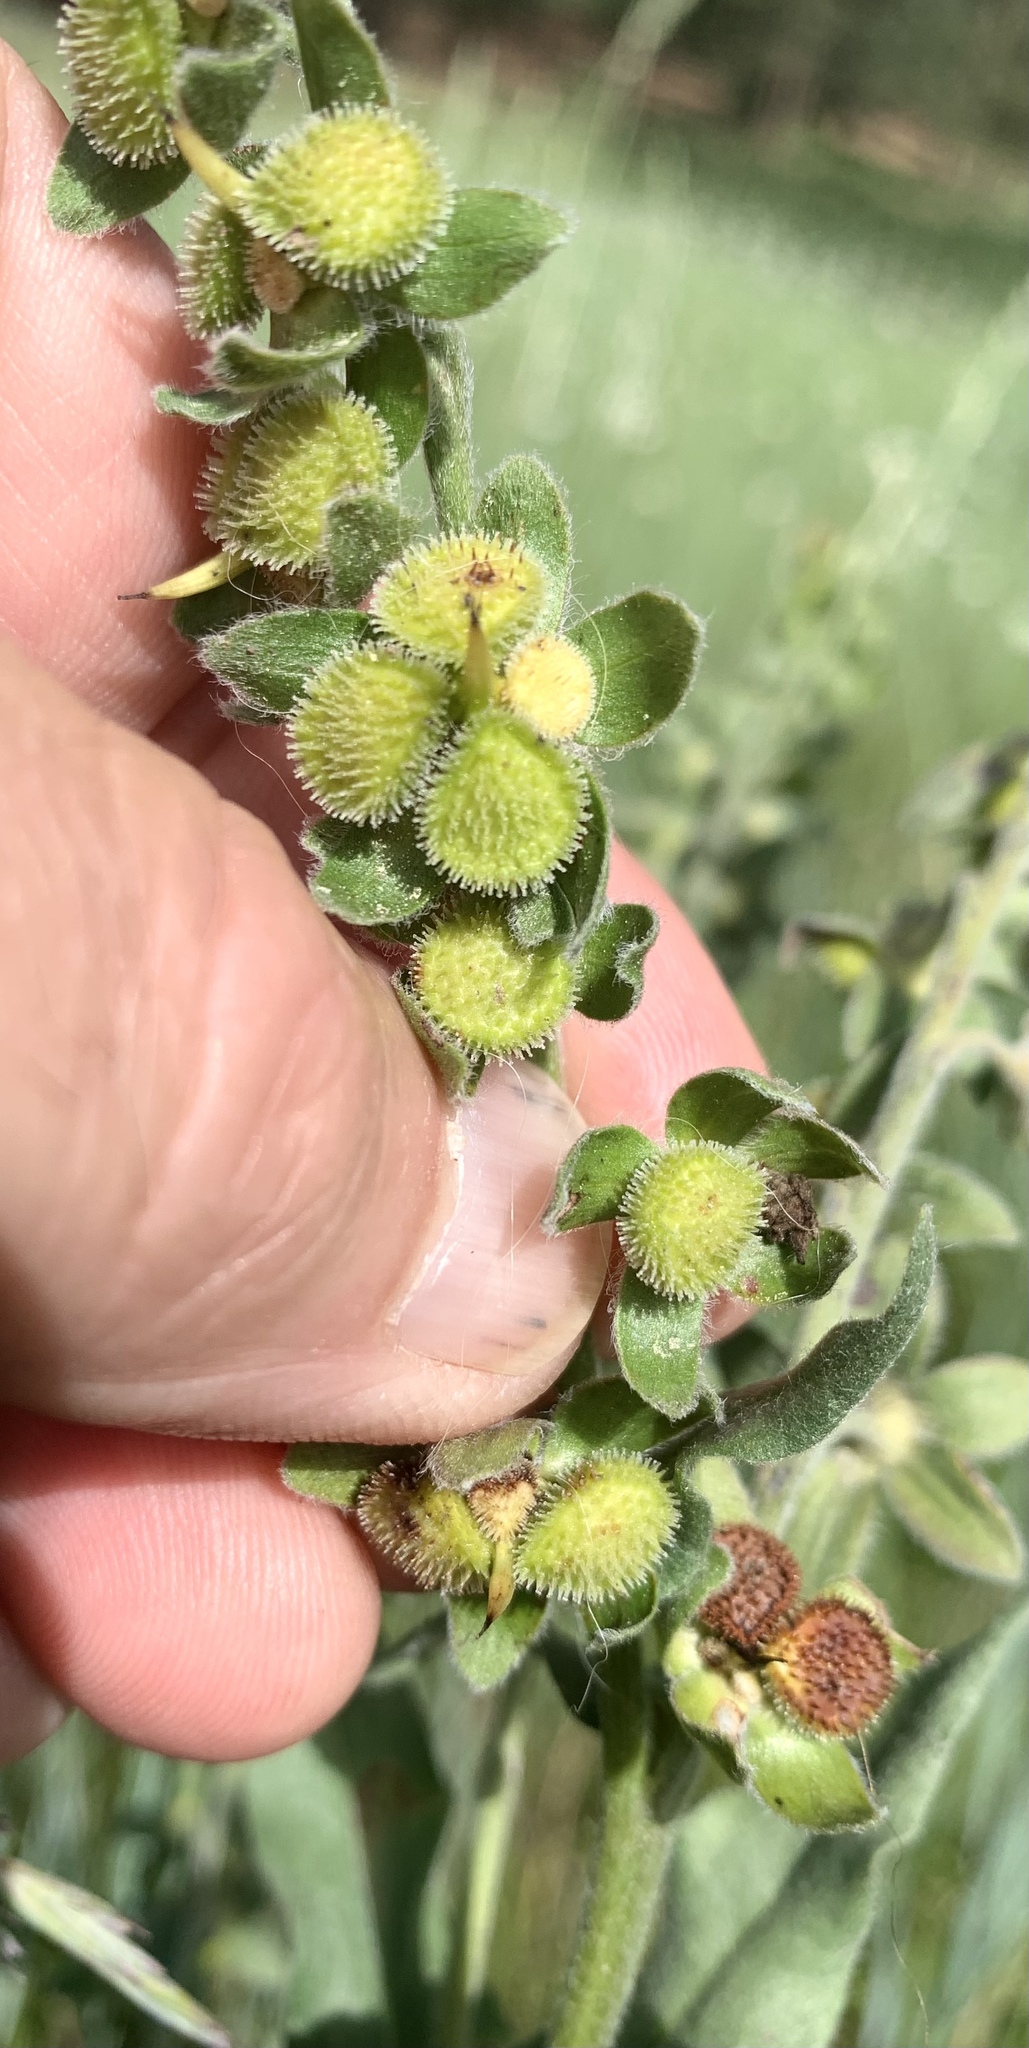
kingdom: Plantae
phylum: Tracheophyta
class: Magnoliopsida
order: Boraginales
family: Boraginaceae
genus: Cynoglossum
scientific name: Cynoglossum officinale
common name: Hound's-tongue
